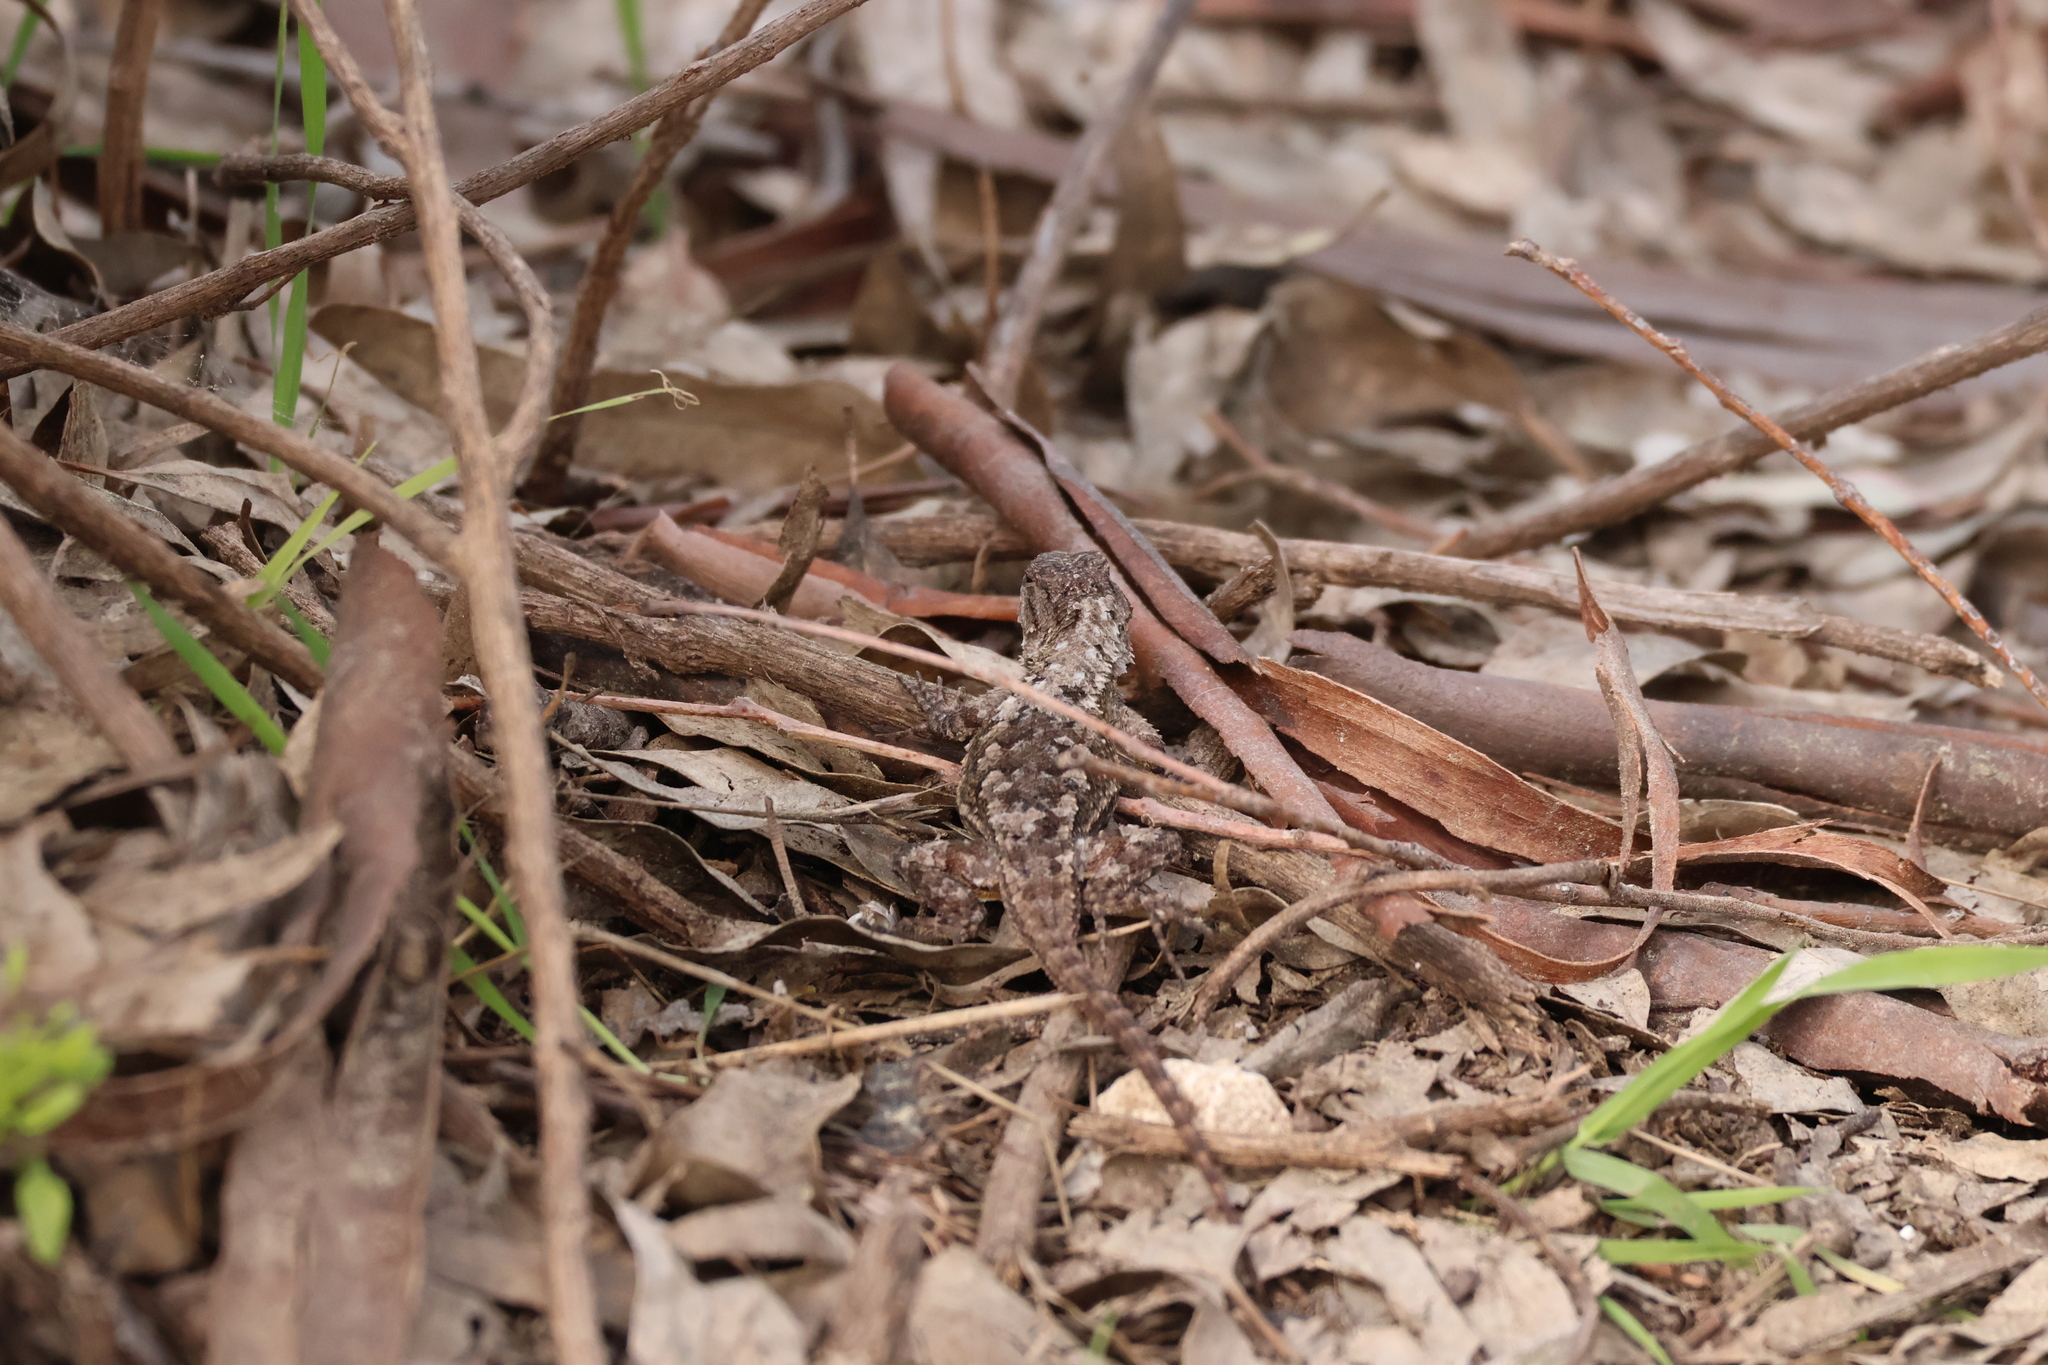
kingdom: Animalia
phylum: Chordata
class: Squamata
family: Phrynosomatidae
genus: Sceloporus
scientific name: Sceloporus occidentalis
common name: Western fence lizard
